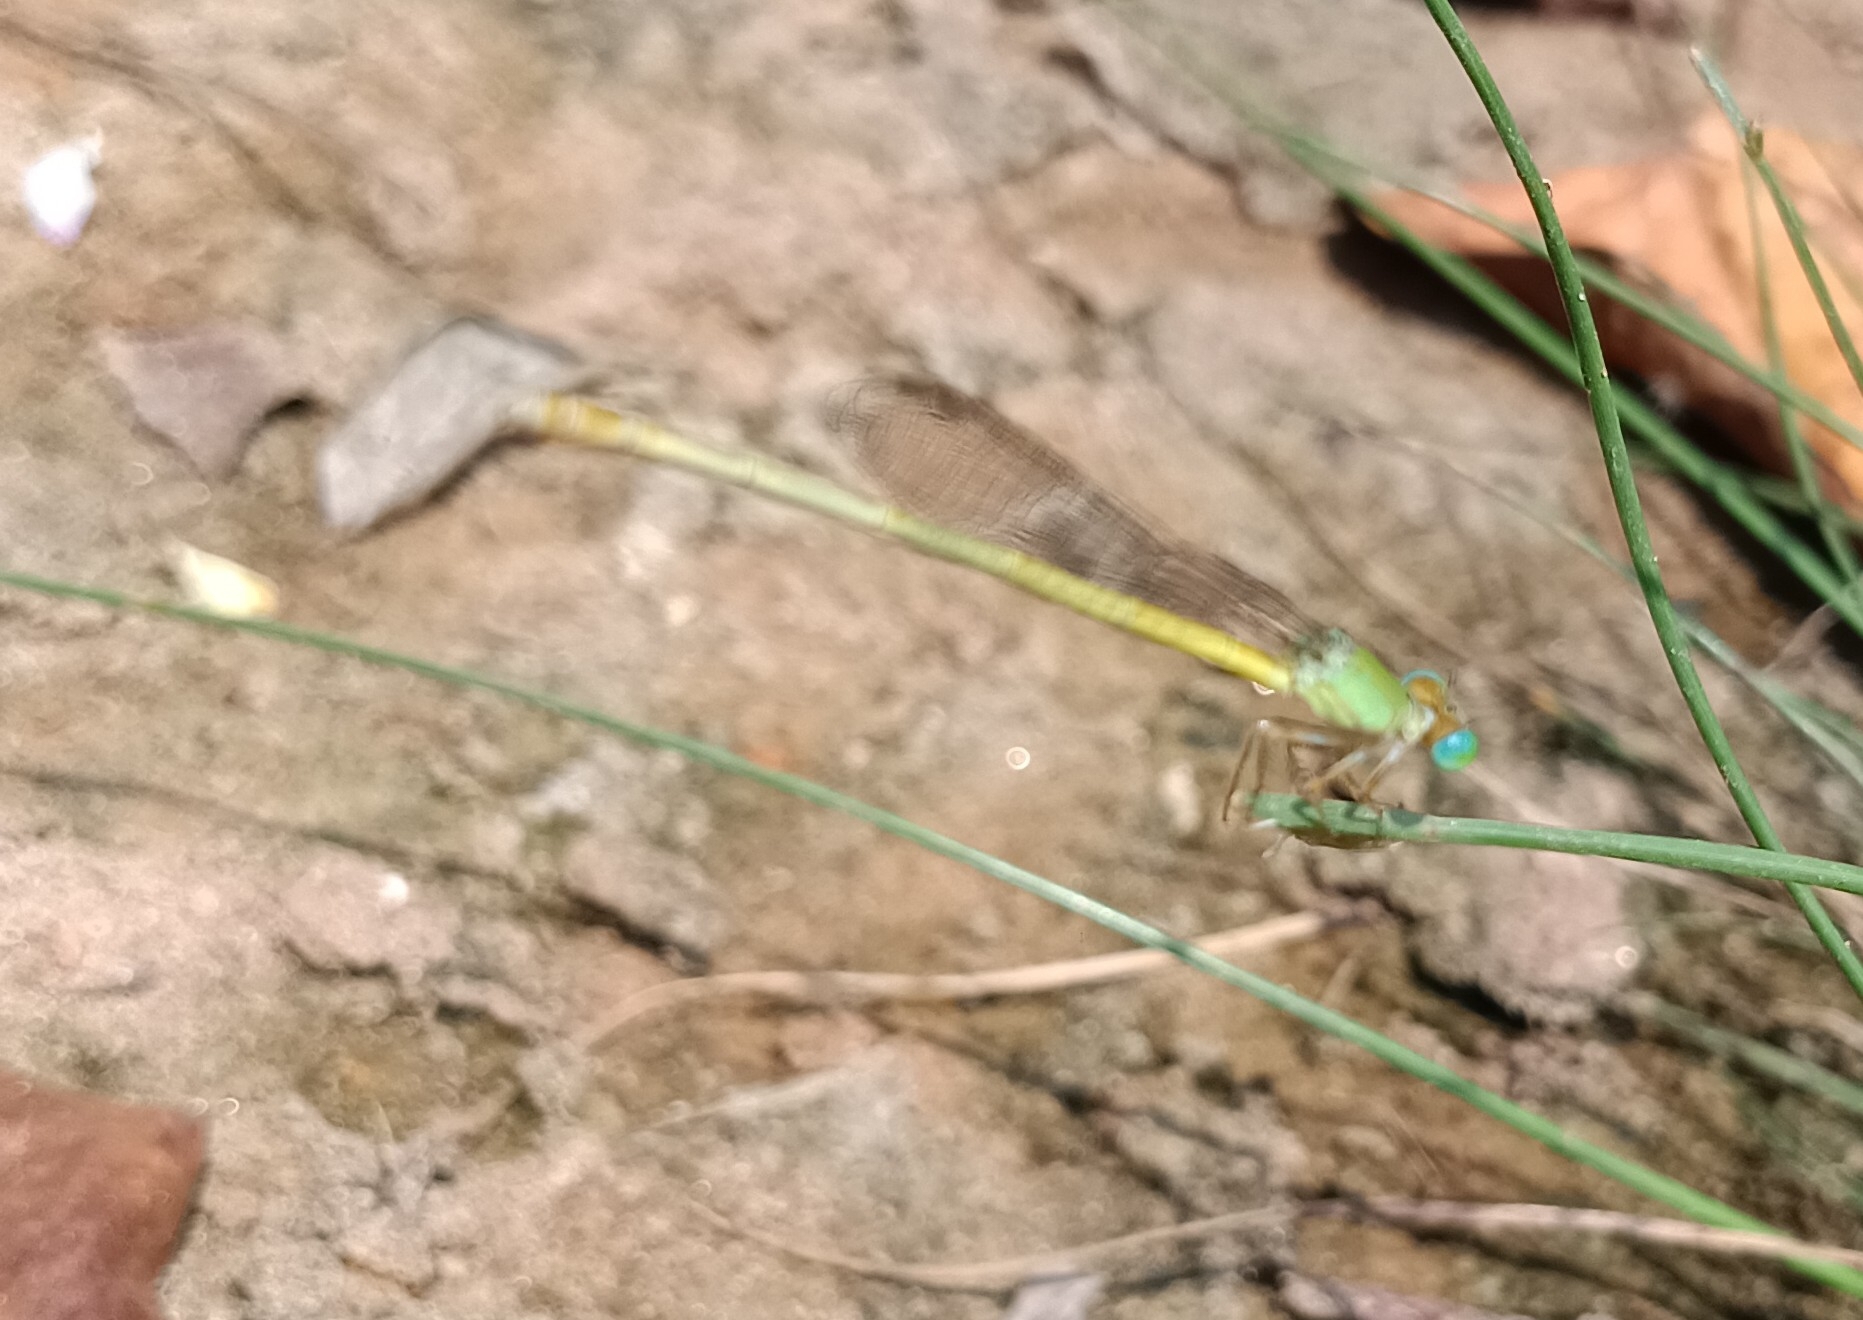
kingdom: Animalia
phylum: Arthropoda
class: Insecta
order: Odonata
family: Coenagrionidae
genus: Ceriagrion
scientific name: Ceriagrion coromandelianum
